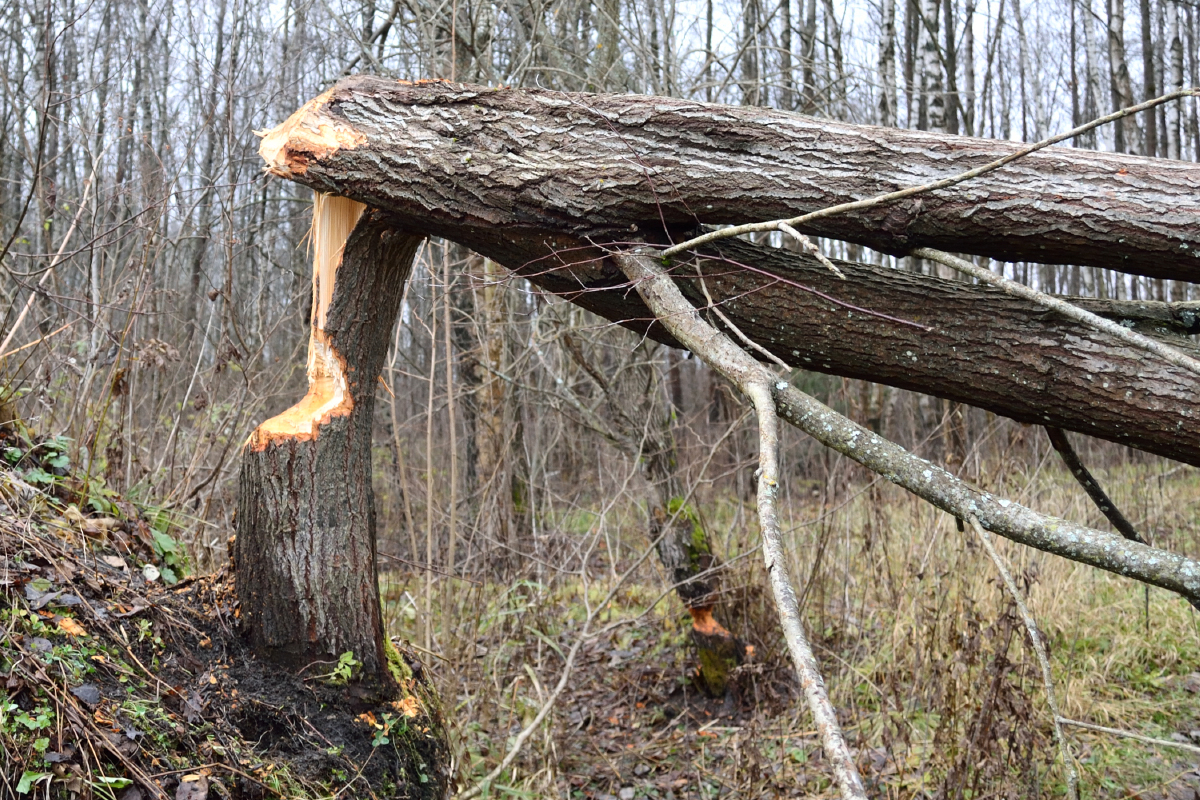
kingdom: Animalia
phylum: Chordata
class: Mammalia
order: Rodentia
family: Castoridae
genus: Castor
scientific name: Castor fiber
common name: Eurasian beaver
